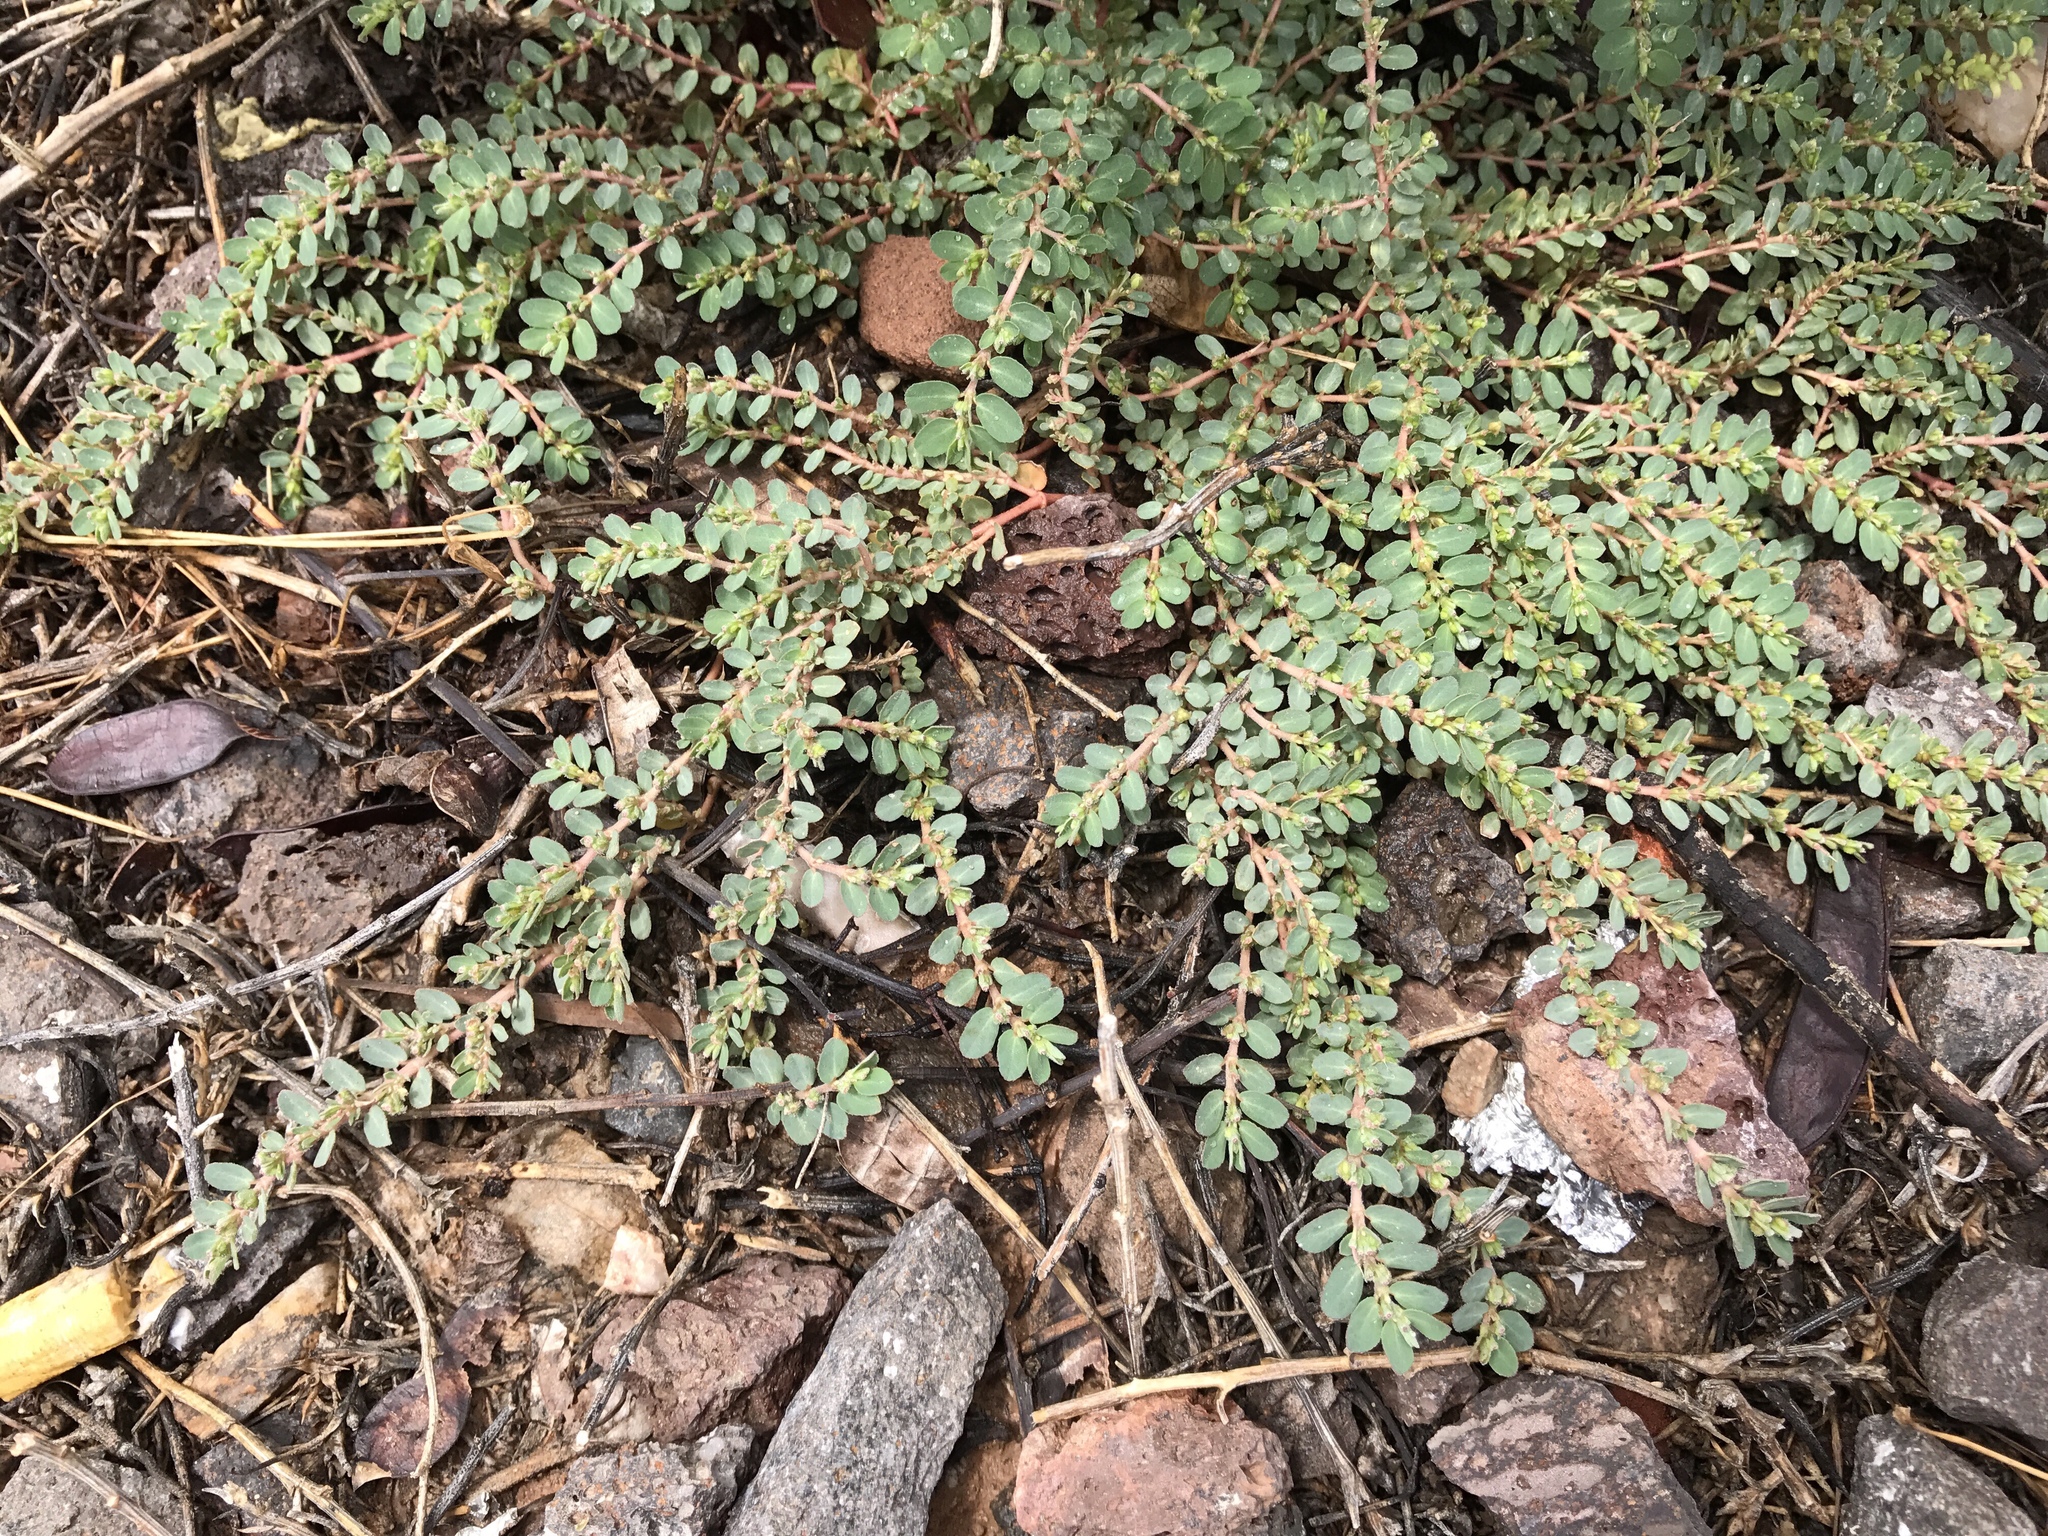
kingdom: Plantae
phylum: Tracheophyta
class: Magnoliopsida
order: Malpighiales
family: Euphorbiaceae
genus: Euphorbia
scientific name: Euphorbia prostrata
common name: Prostrate sandmat
